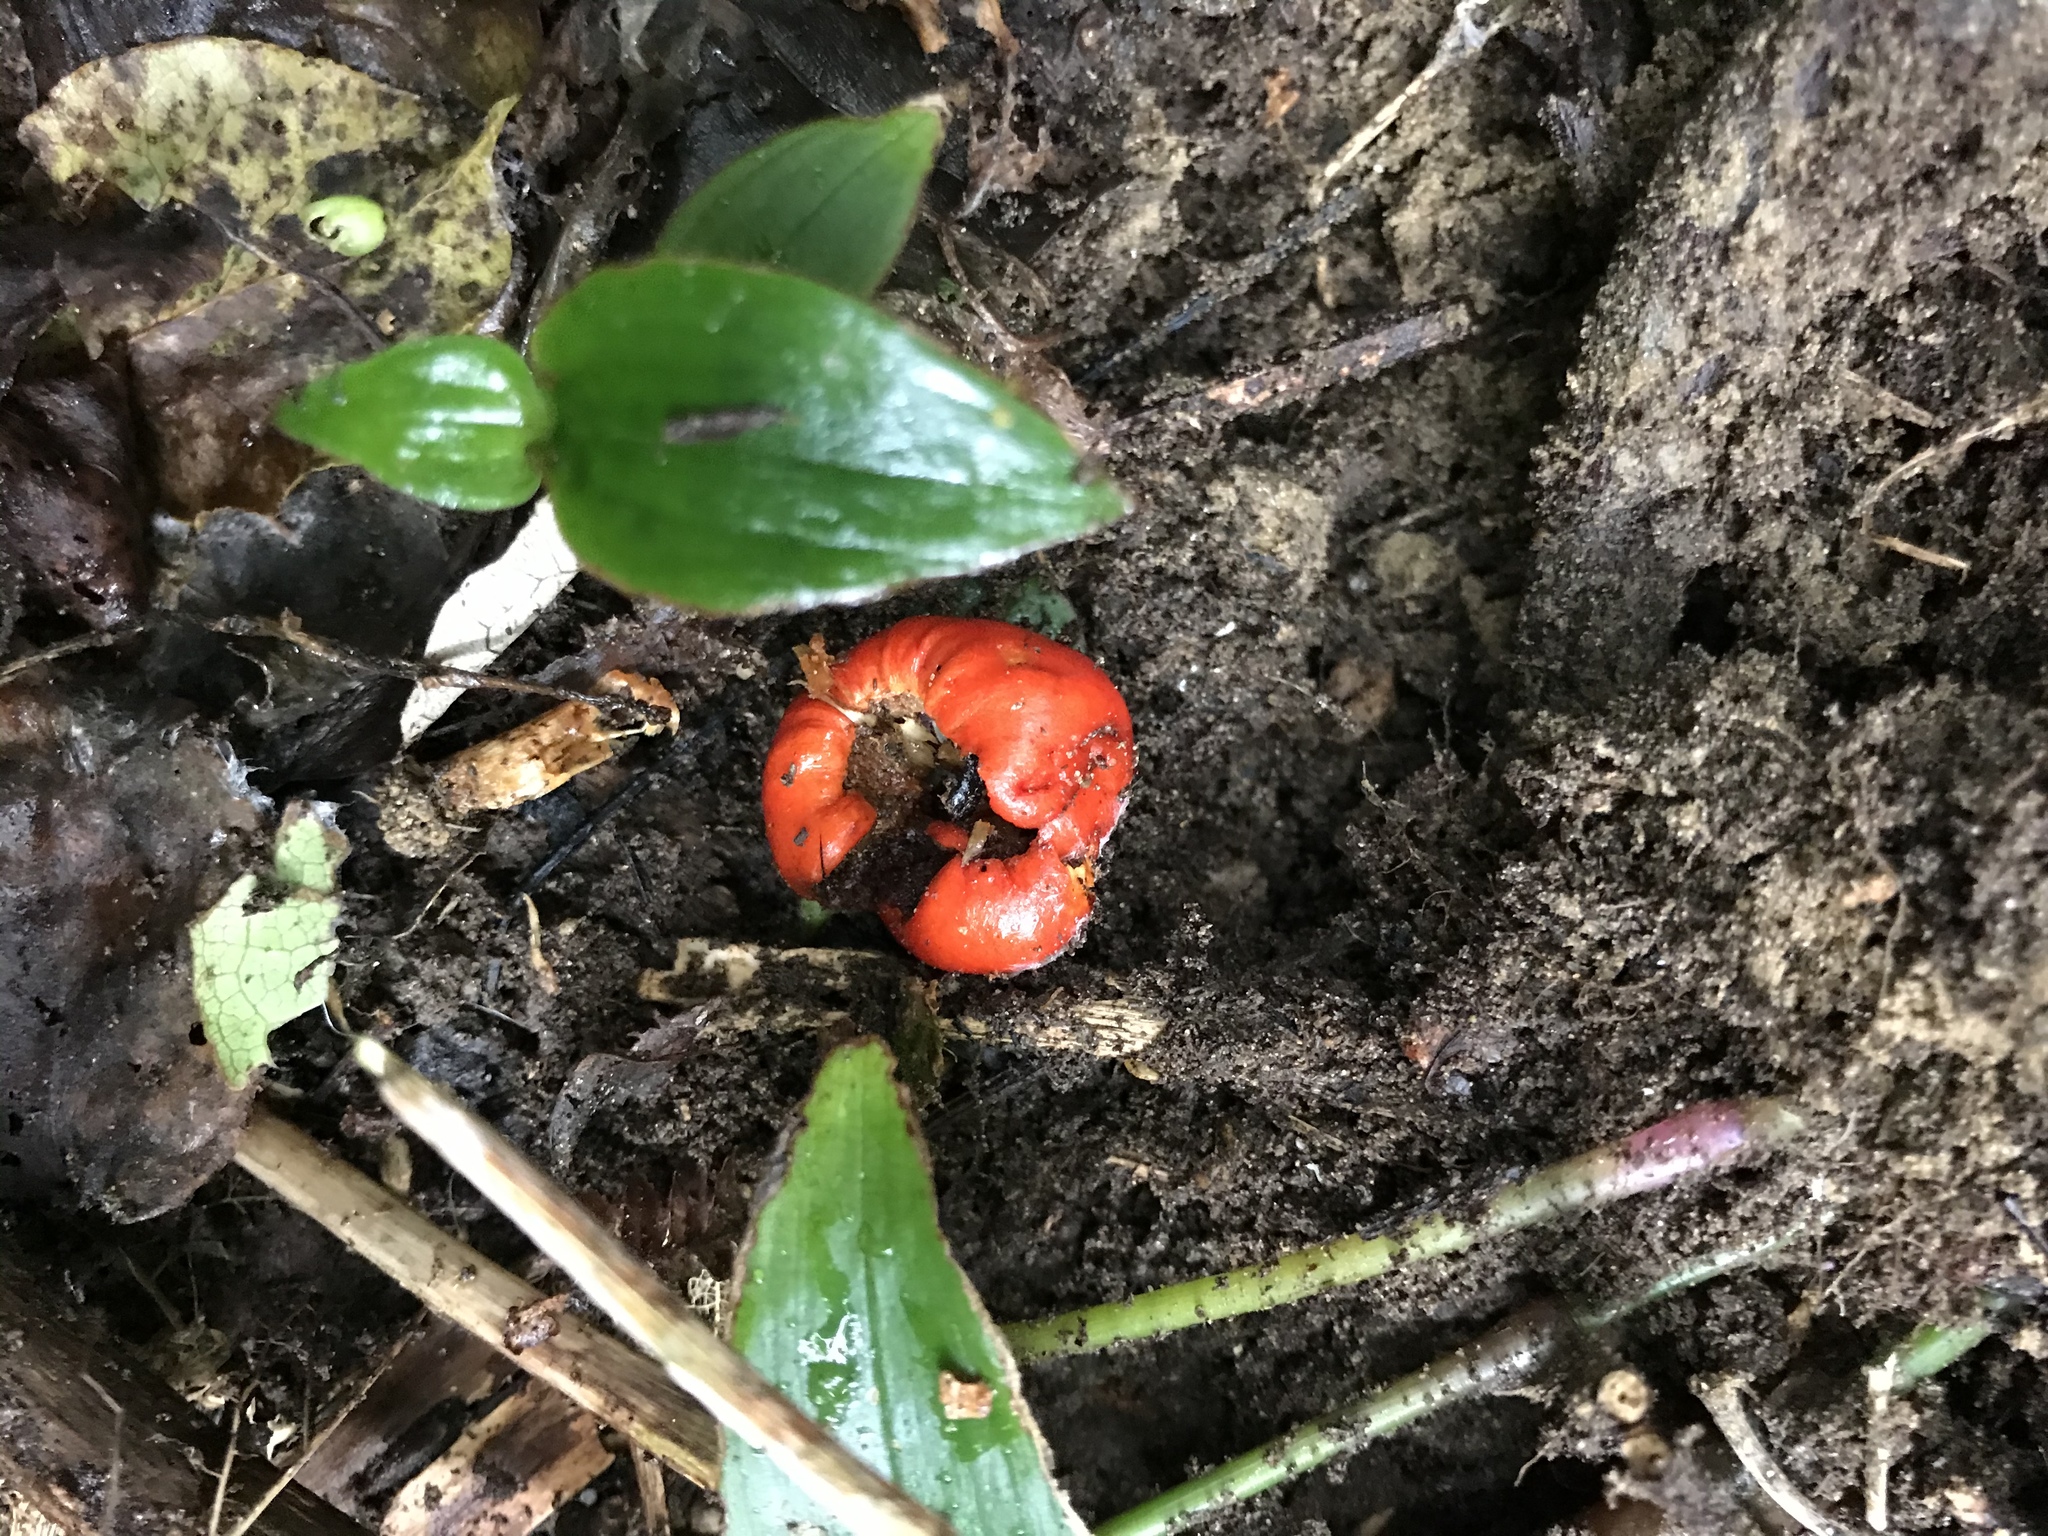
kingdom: Fungi
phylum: Basidiomycota
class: Agaricomycetes
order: Agaricales
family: Strophariaceae
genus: Leratiomyces
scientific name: Leratiomyces erythrocephalus
